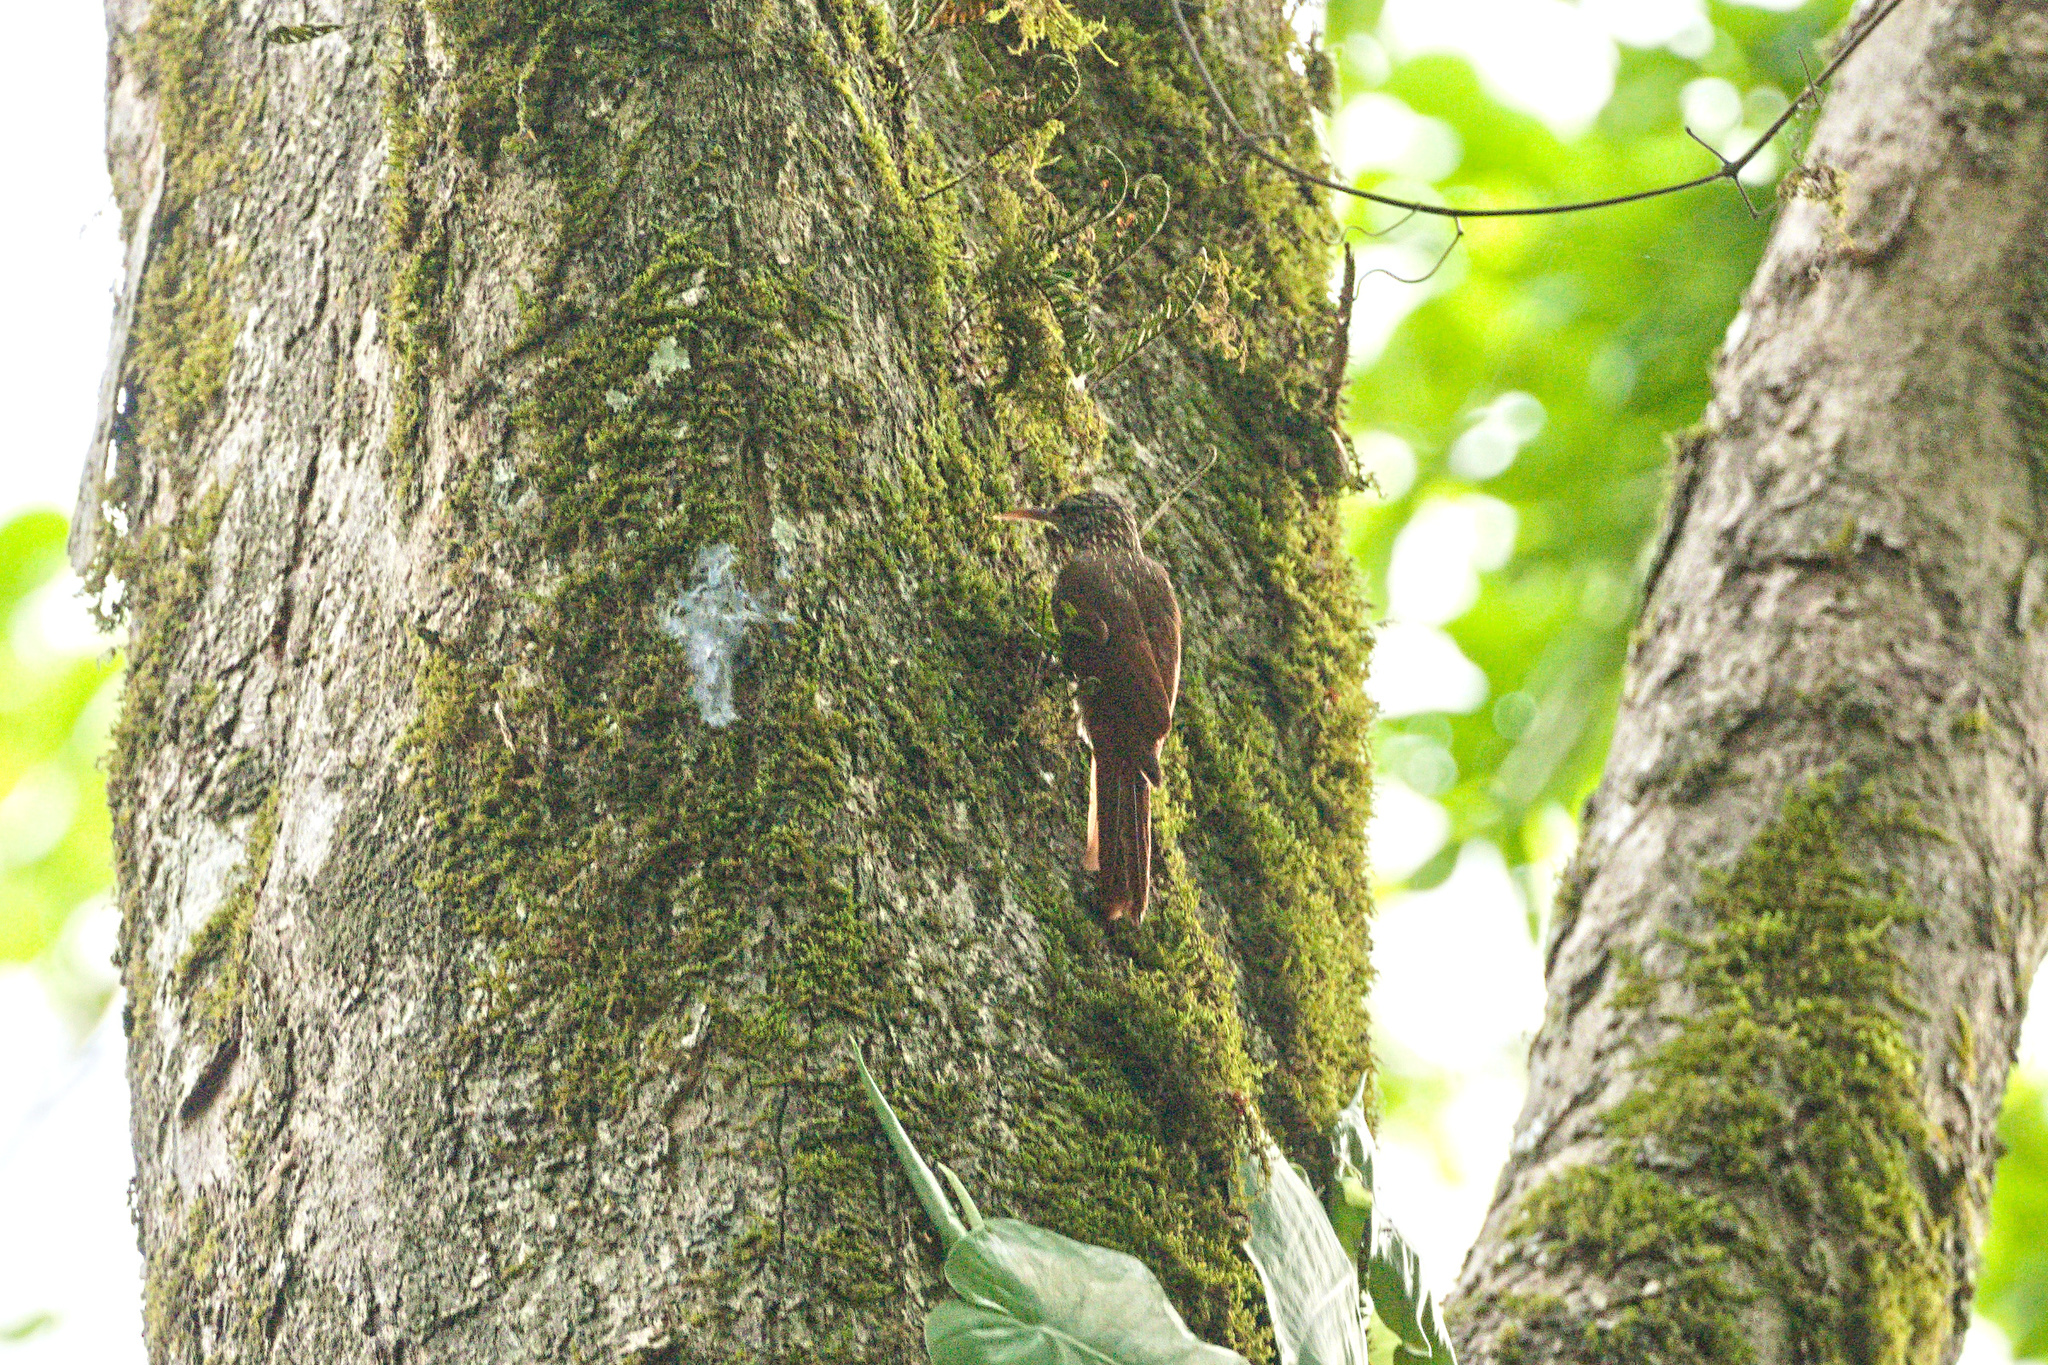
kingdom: Animalia
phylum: Chordata
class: Aves
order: Passeriformes
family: Furnariidae
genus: Lepidocolaptes
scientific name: Lepidocolaptes souleyetii
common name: Streak-headed woodcreeper
